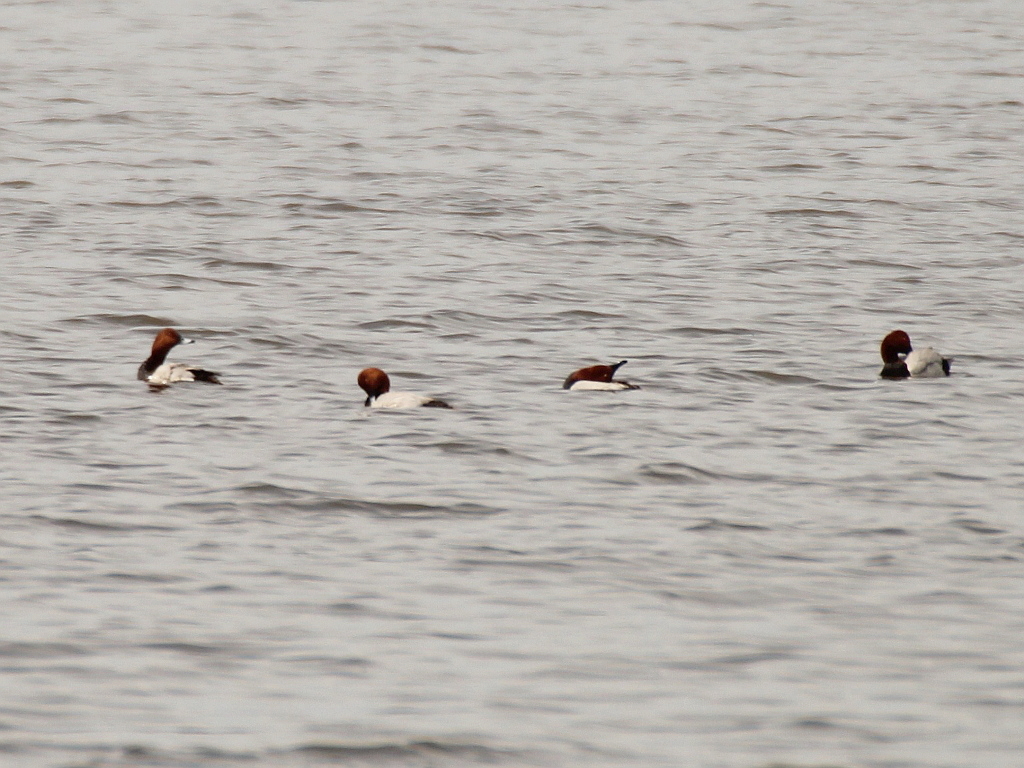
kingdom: Animalia
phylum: Chordata
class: Aves
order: Anseriformes
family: Anatidae
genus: Aythya
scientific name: Aythya ferina
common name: Common pochard
